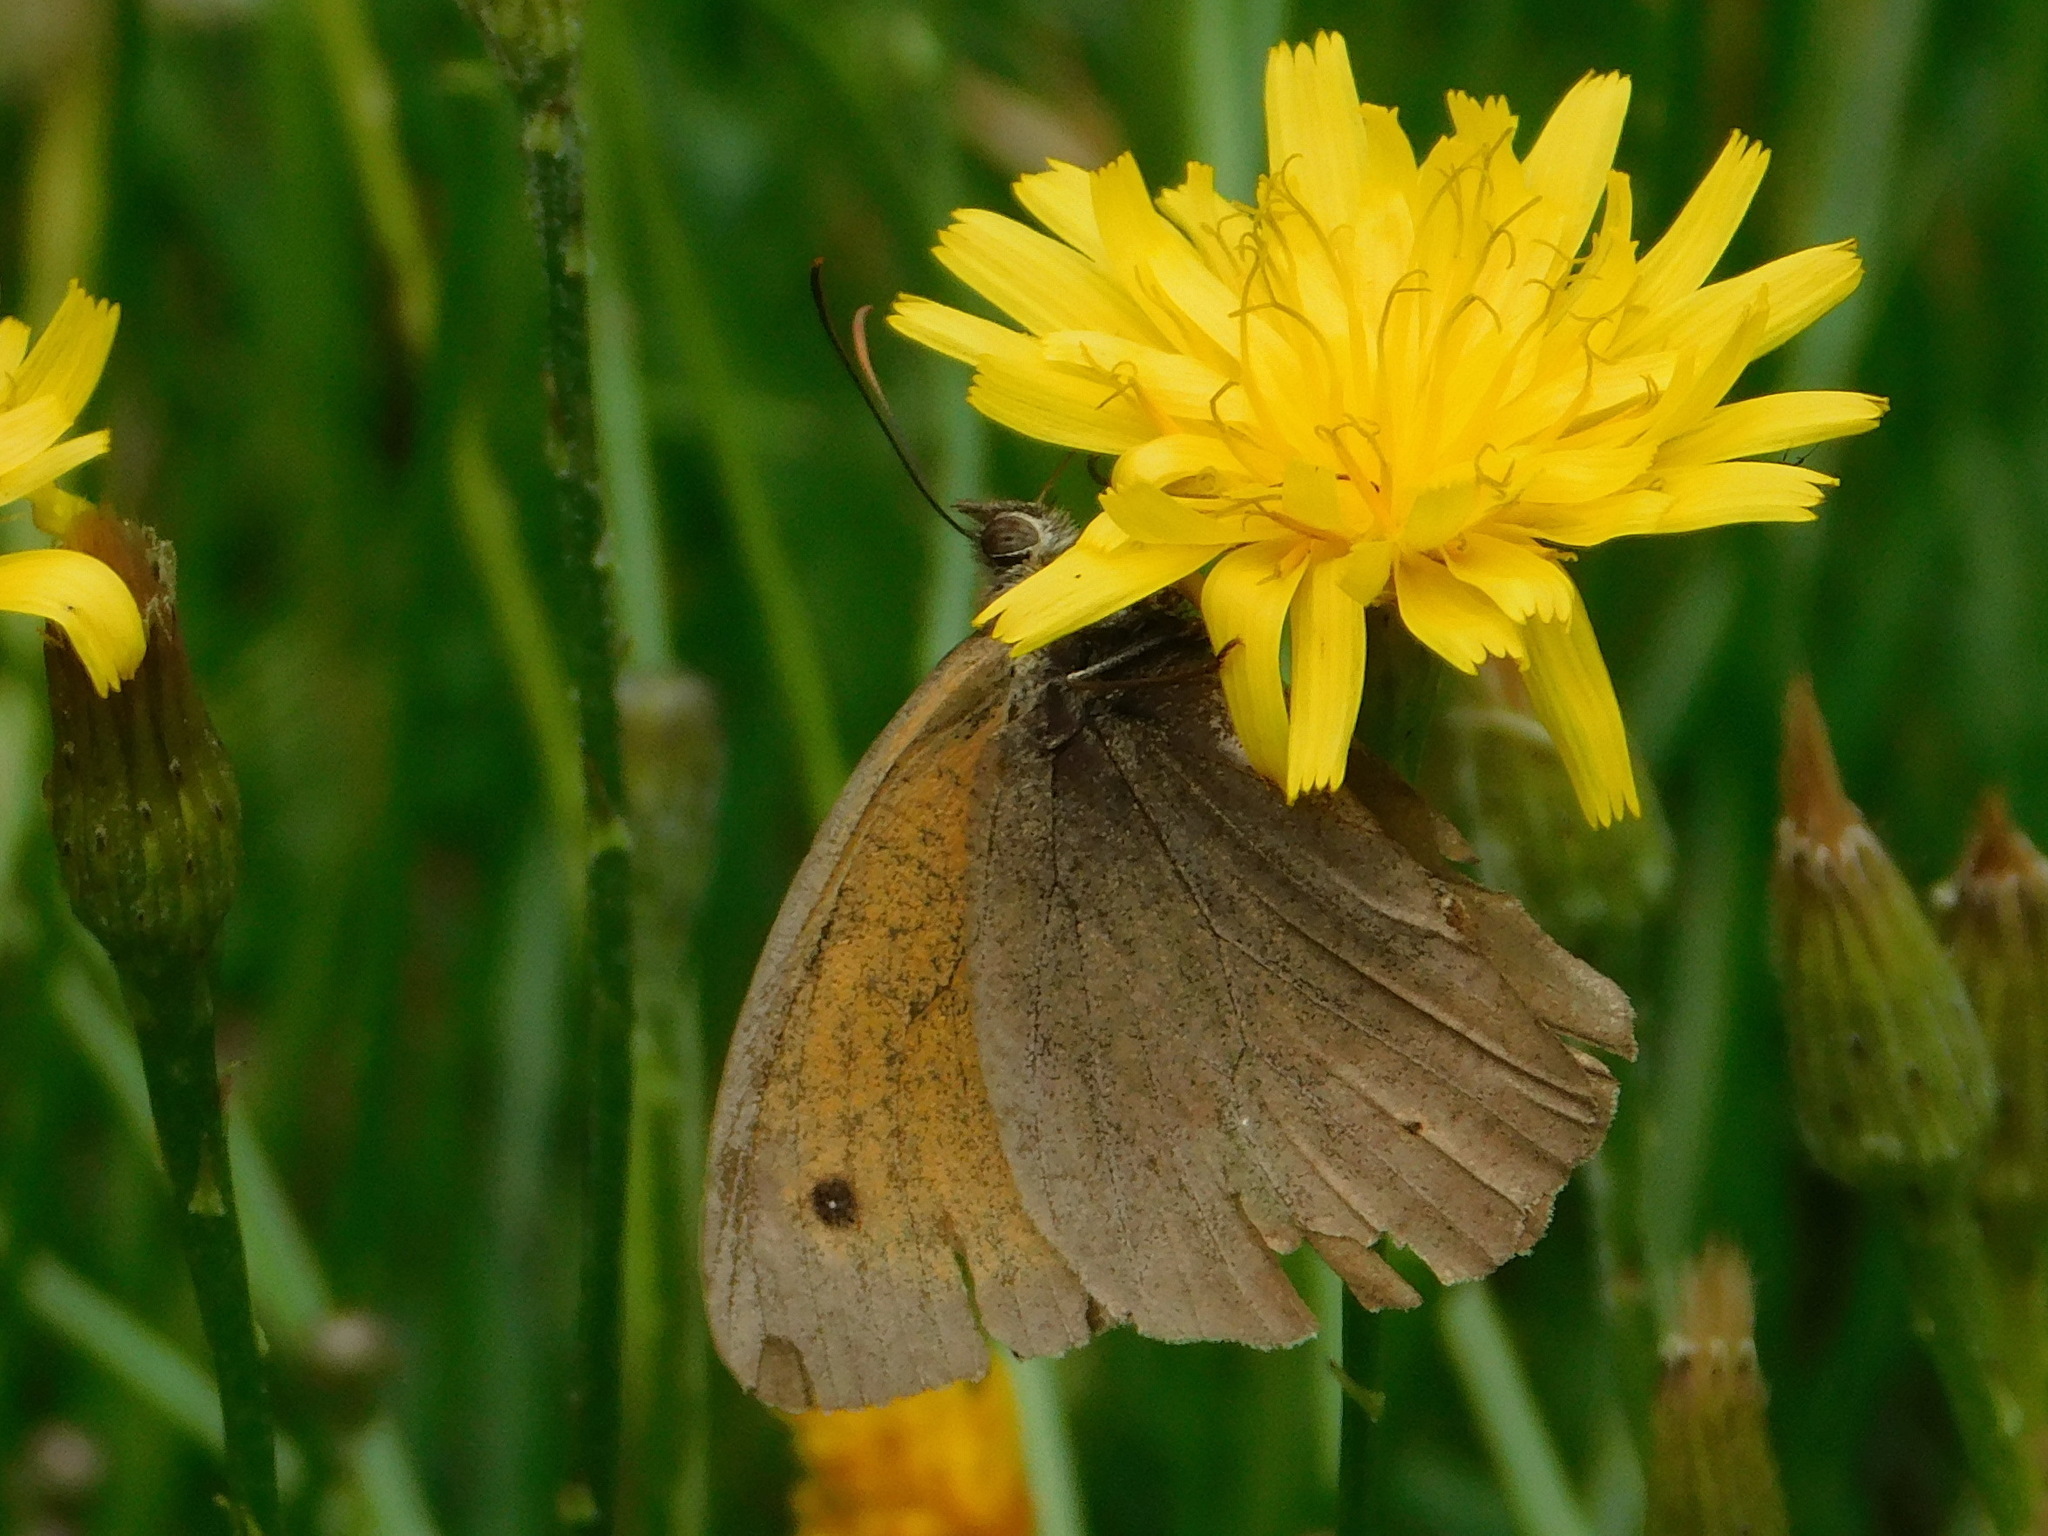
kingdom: Animalia
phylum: Arthropoda
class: Insecta
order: Lepidoptera
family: Nymphalidae
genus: Maniola
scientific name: Maniola jurtina
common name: Meadow brown
